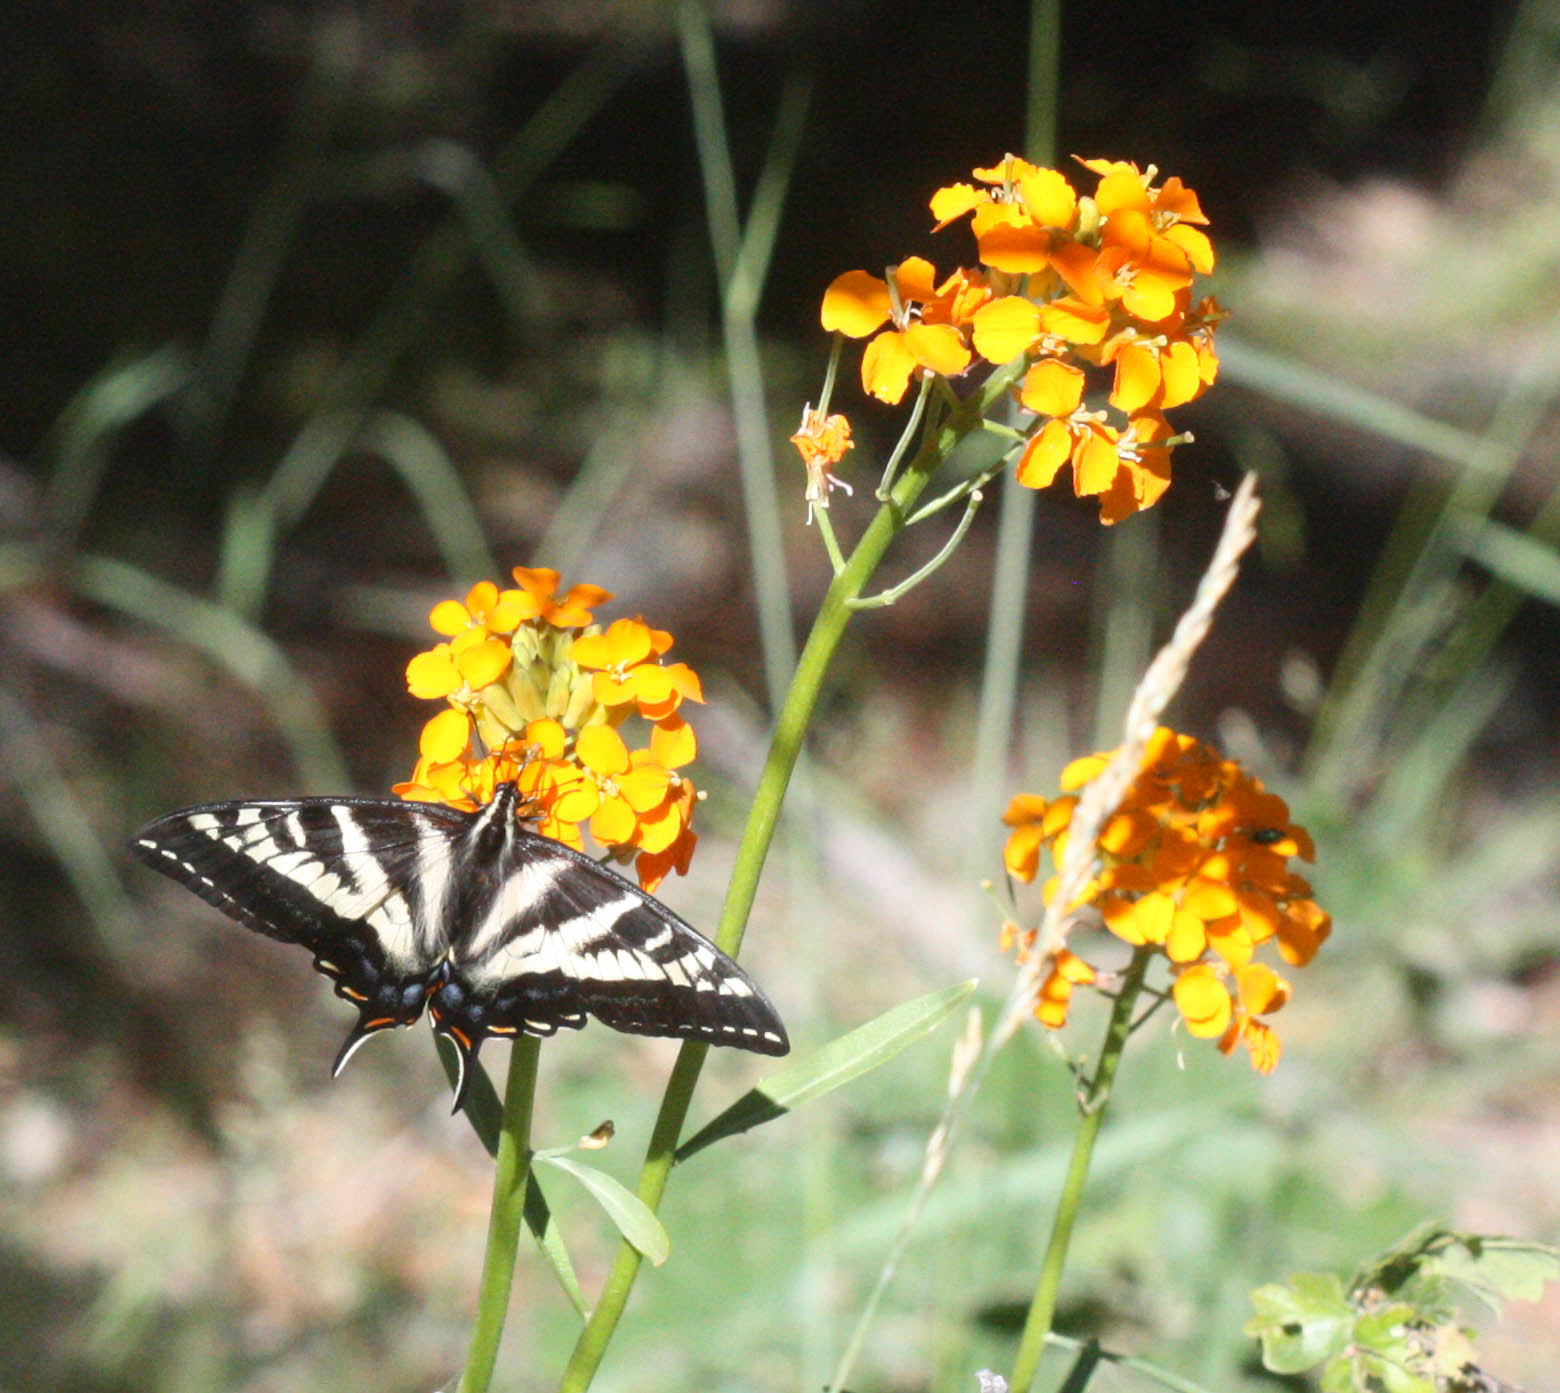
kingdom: Plantae
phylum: Tracheophyta
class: Magnoliopsida
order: Brassicales
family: Brassicaceae
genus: Erysimum
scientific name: Erysimum capitatum
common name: Western wallflower
